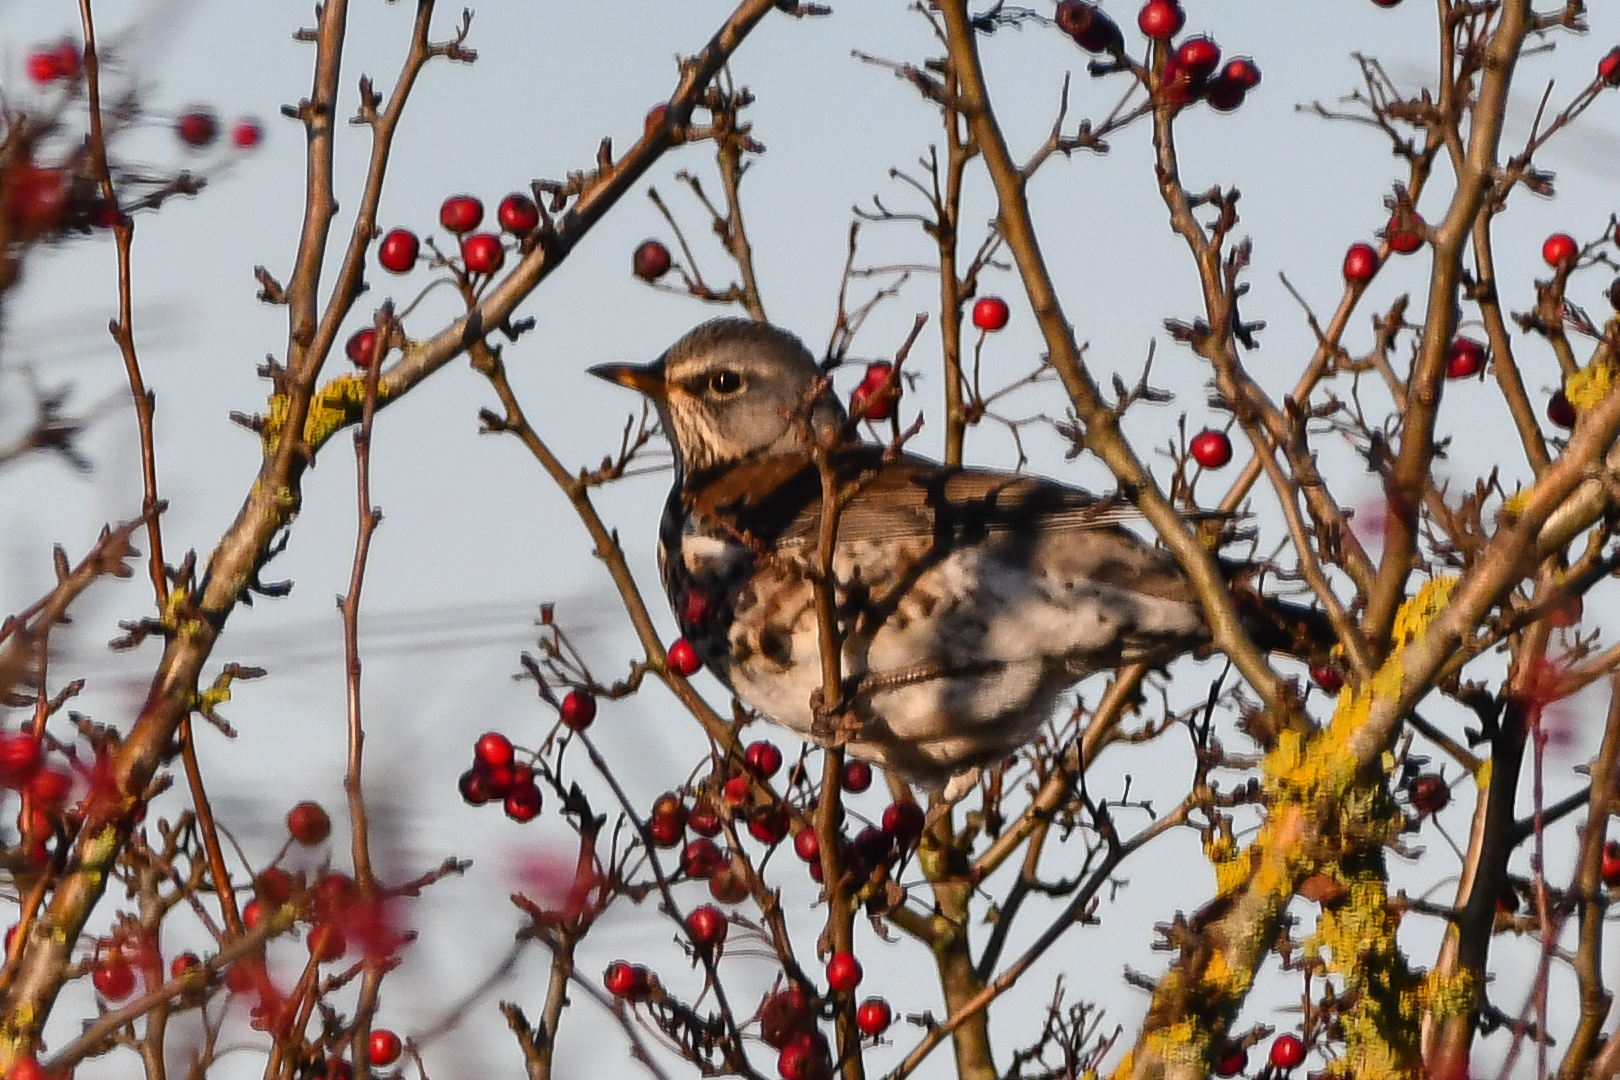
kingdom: Animalia
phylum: Chordata
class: Aves
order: Passeriformes
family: Turdidae
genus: Turdus
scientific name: Turdus pilaris
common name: Fieldfare
